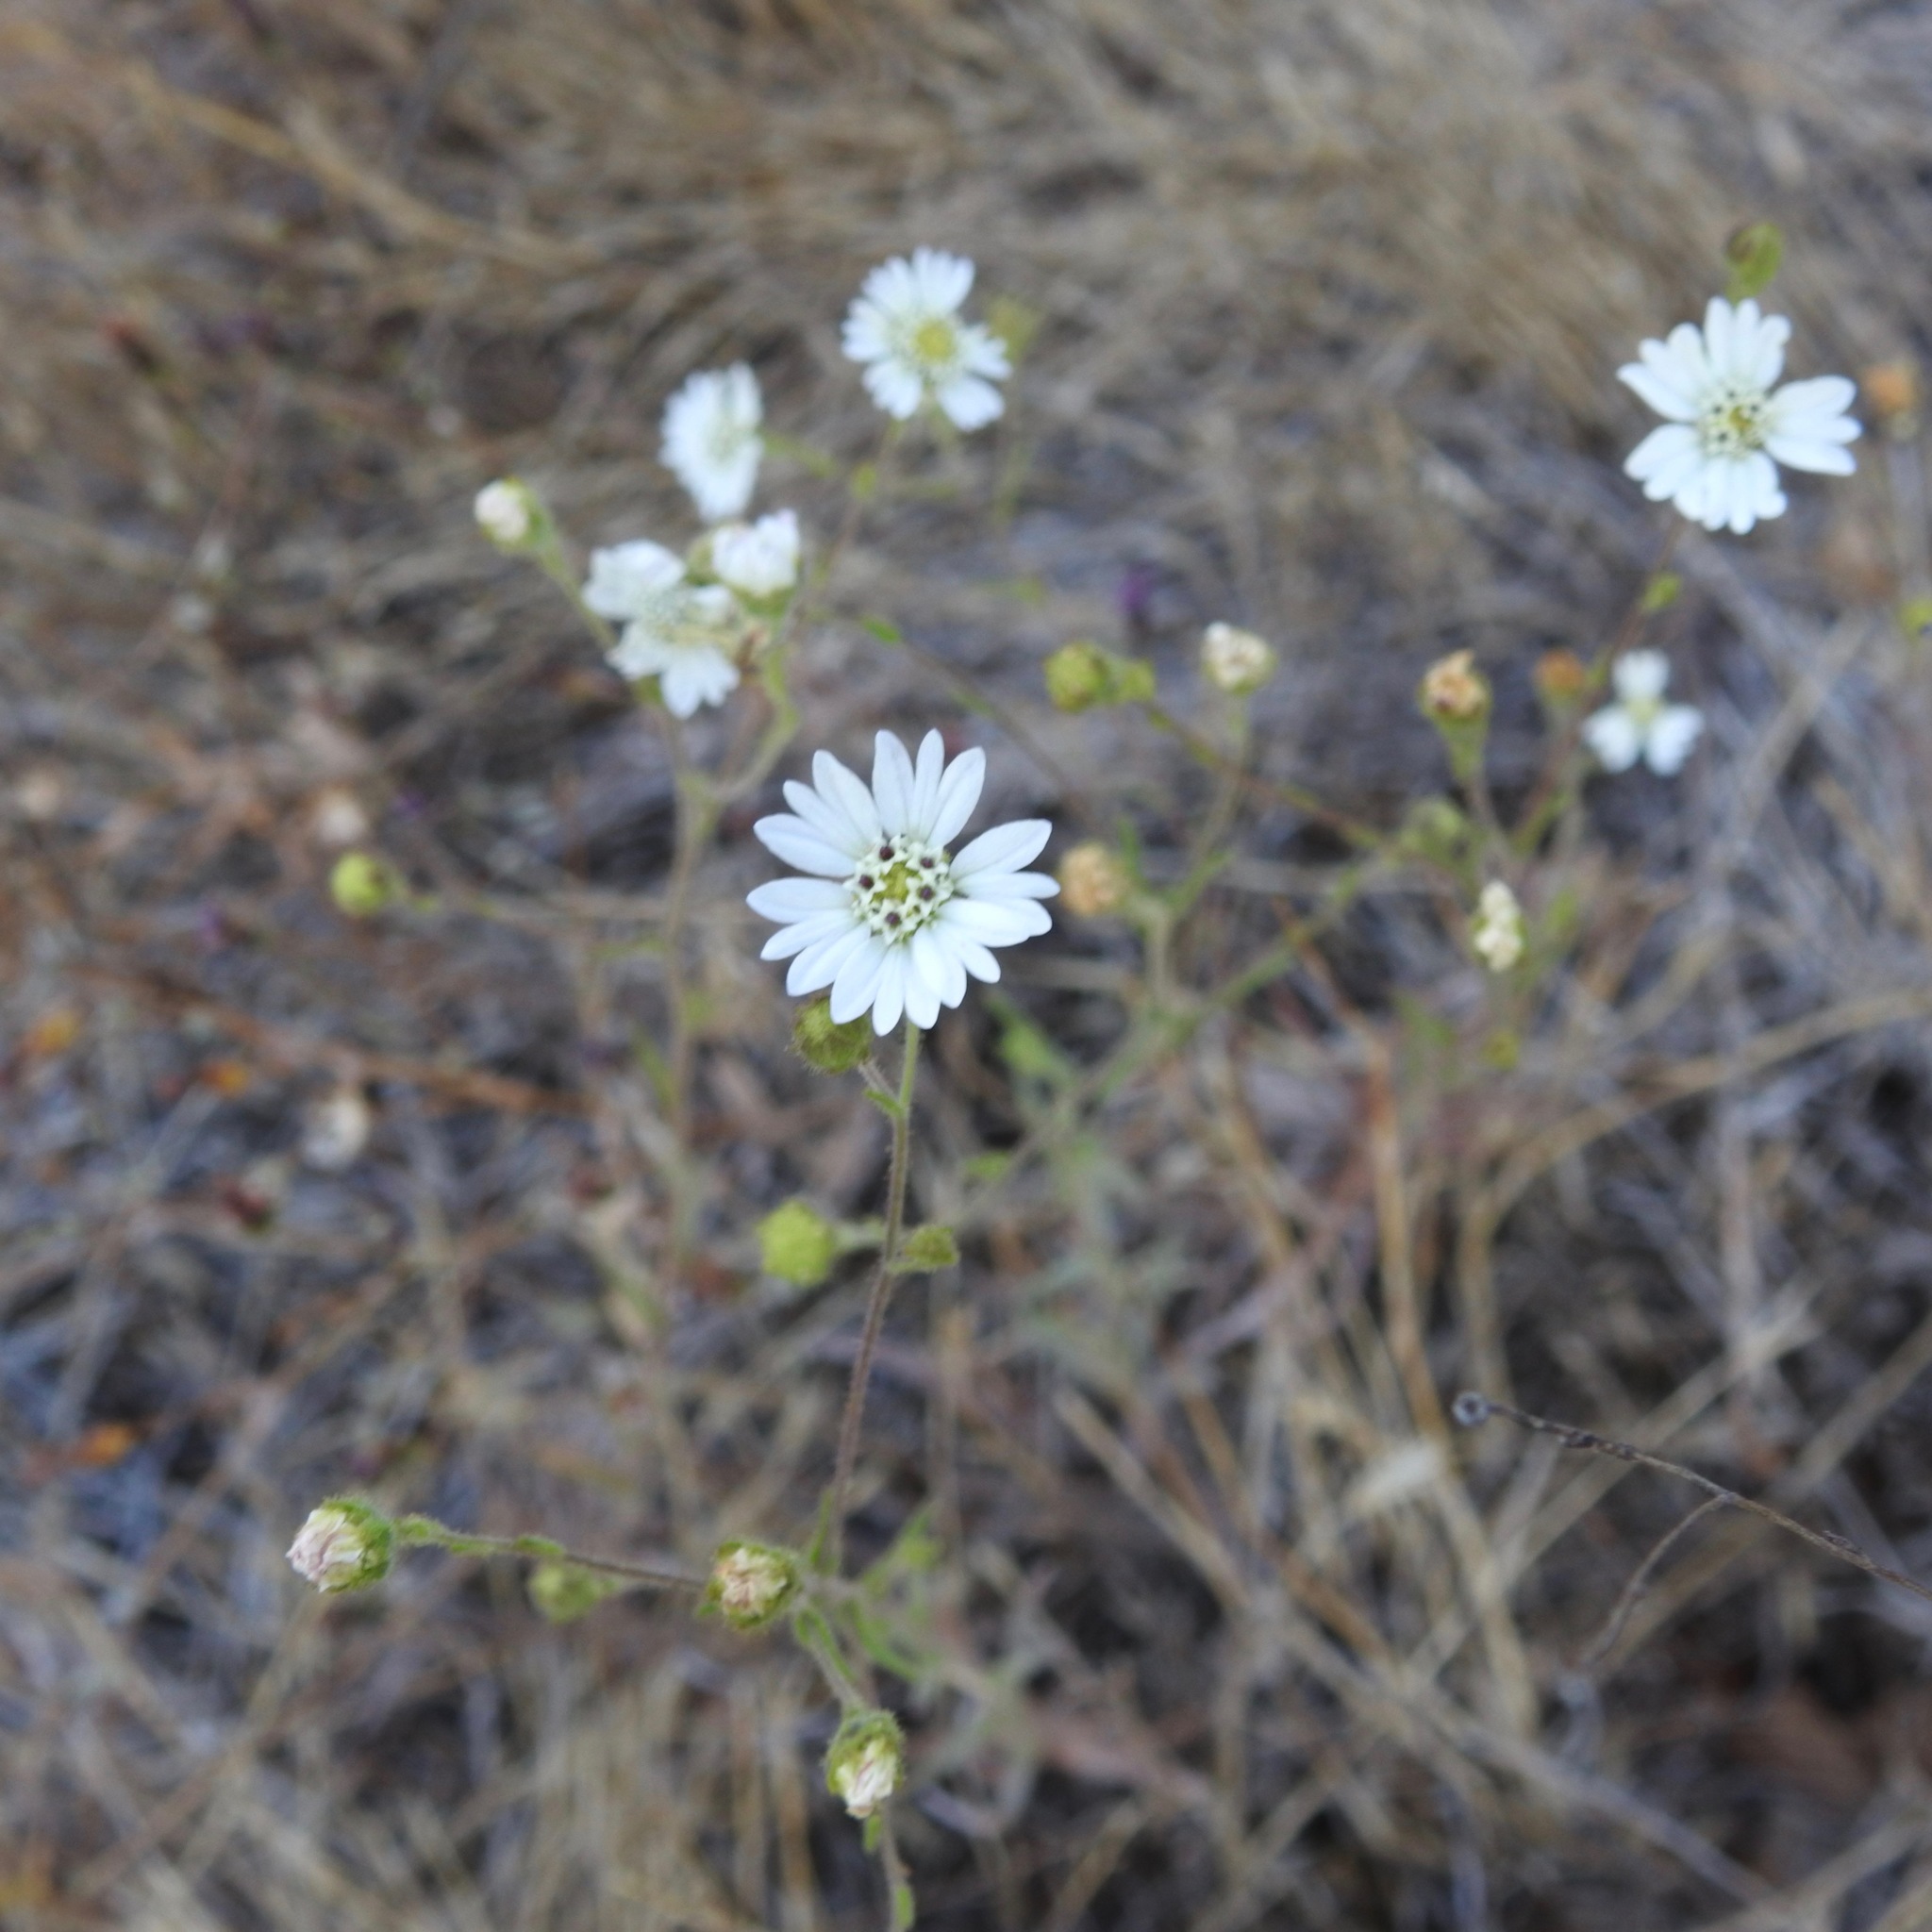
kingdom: Plantae
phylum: Tracheophyta
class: Magnoliopsida
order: Asterales
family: Asteraceae
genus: Hemizonia
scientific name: Hemizonia congesta
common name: Hayfield tarweed
